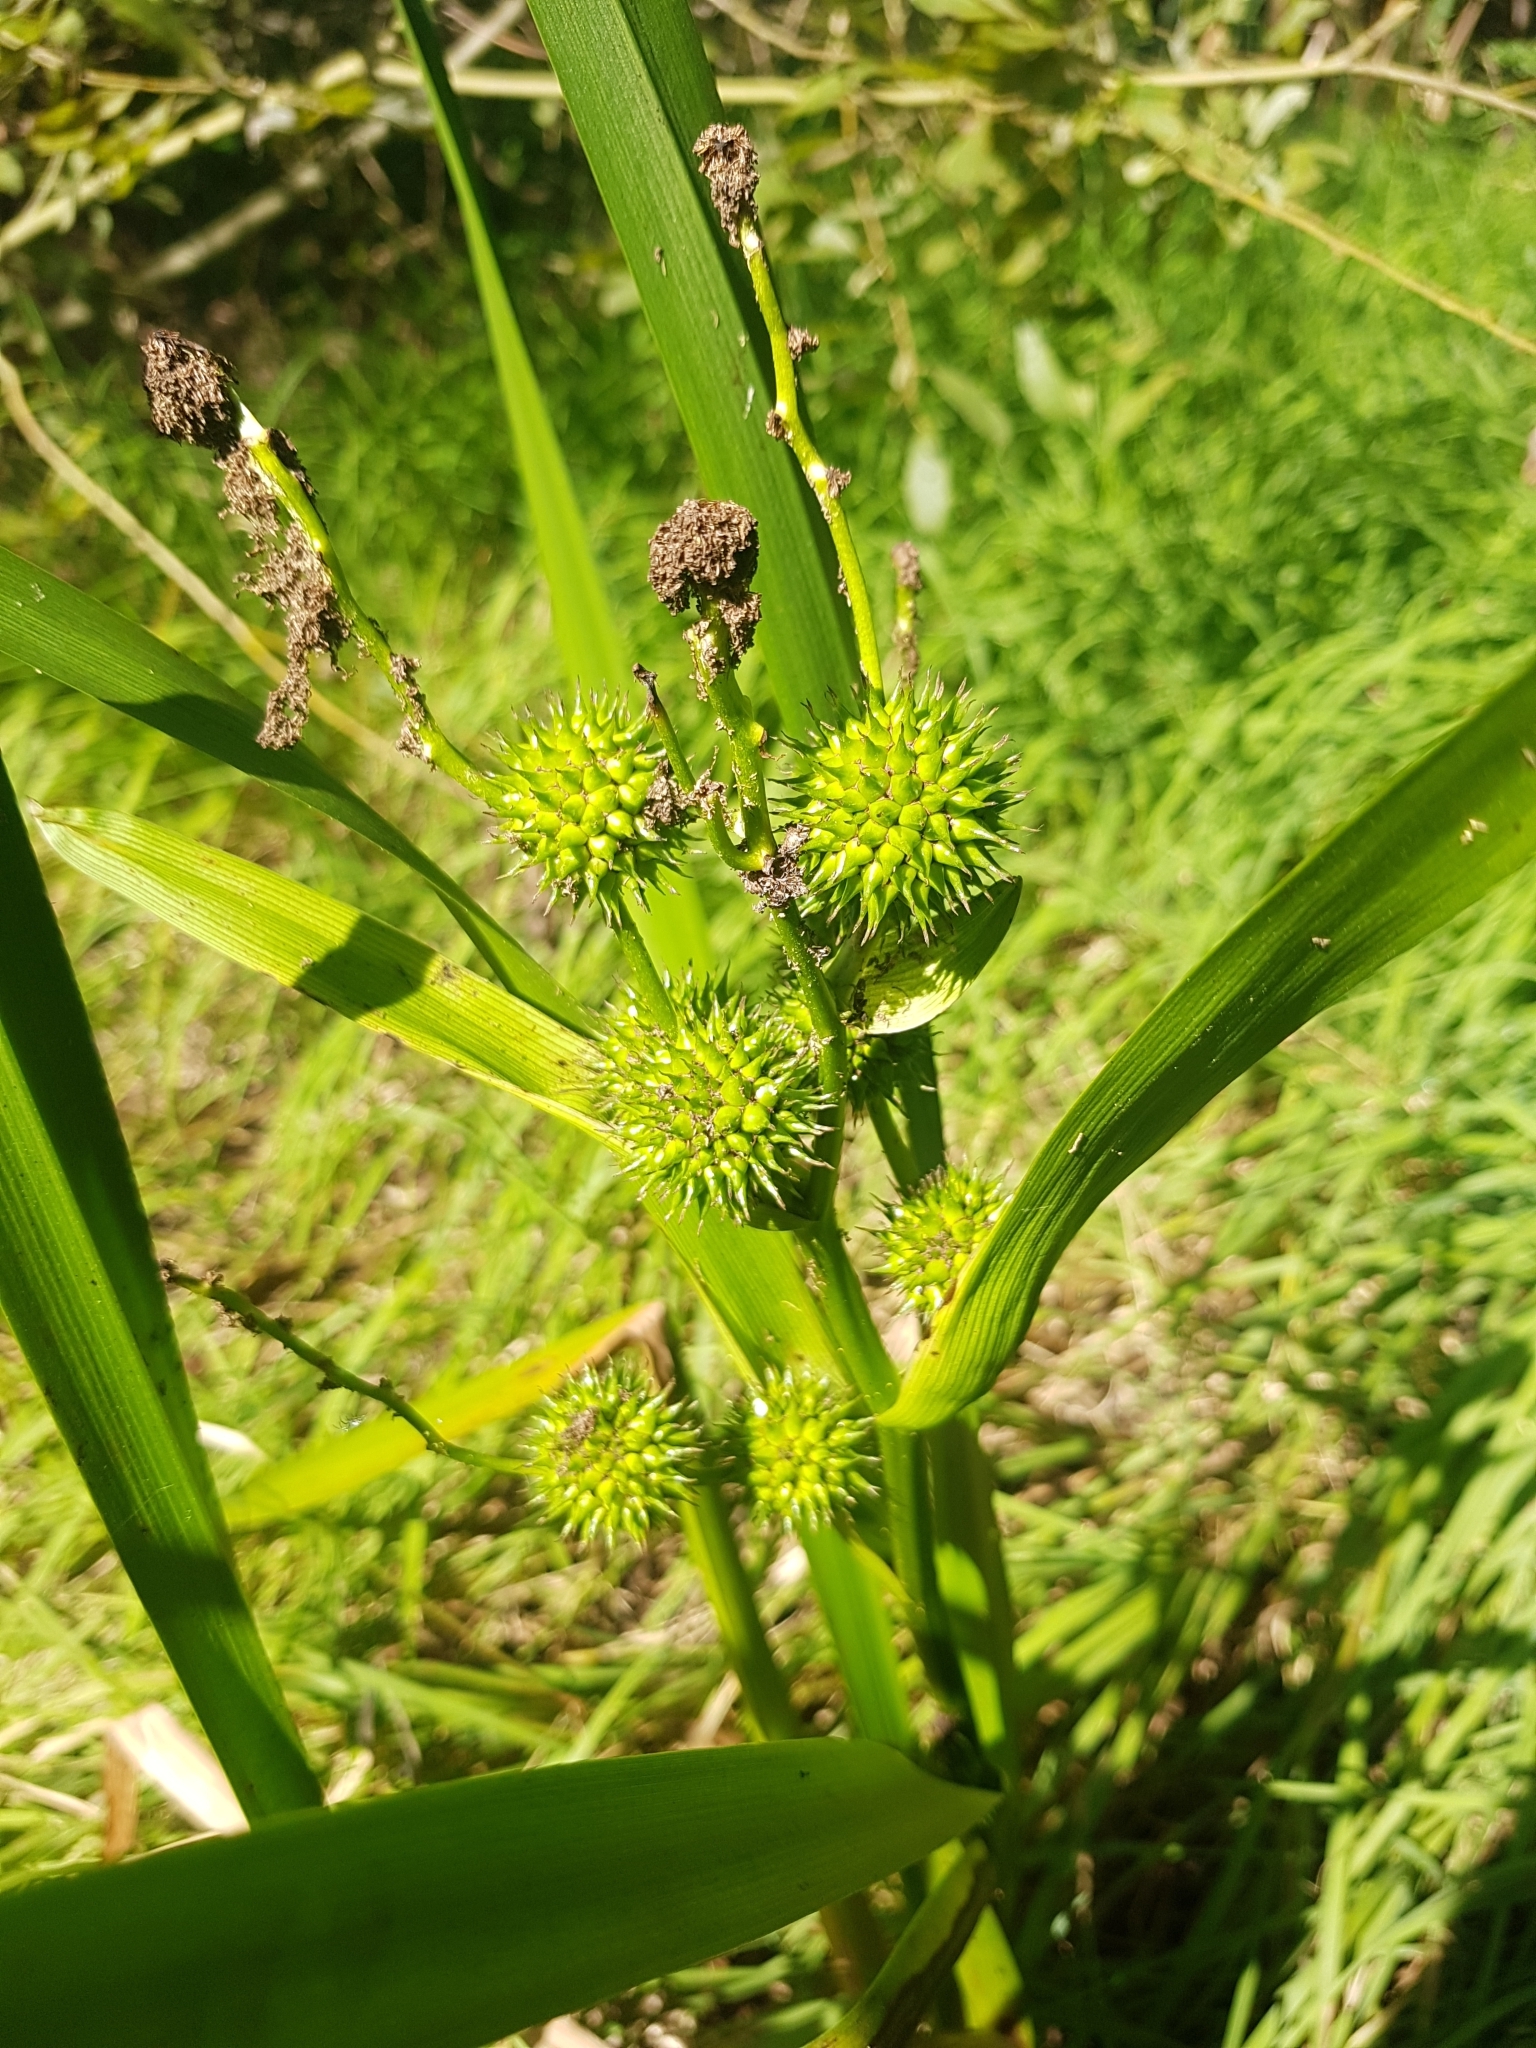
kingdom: Plantae
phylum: Tracheophyta
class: Liliopsida
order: Poales
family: Typhaceae
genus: Sparganium
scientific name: Sparganium erectum
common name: Branched bur-reed
